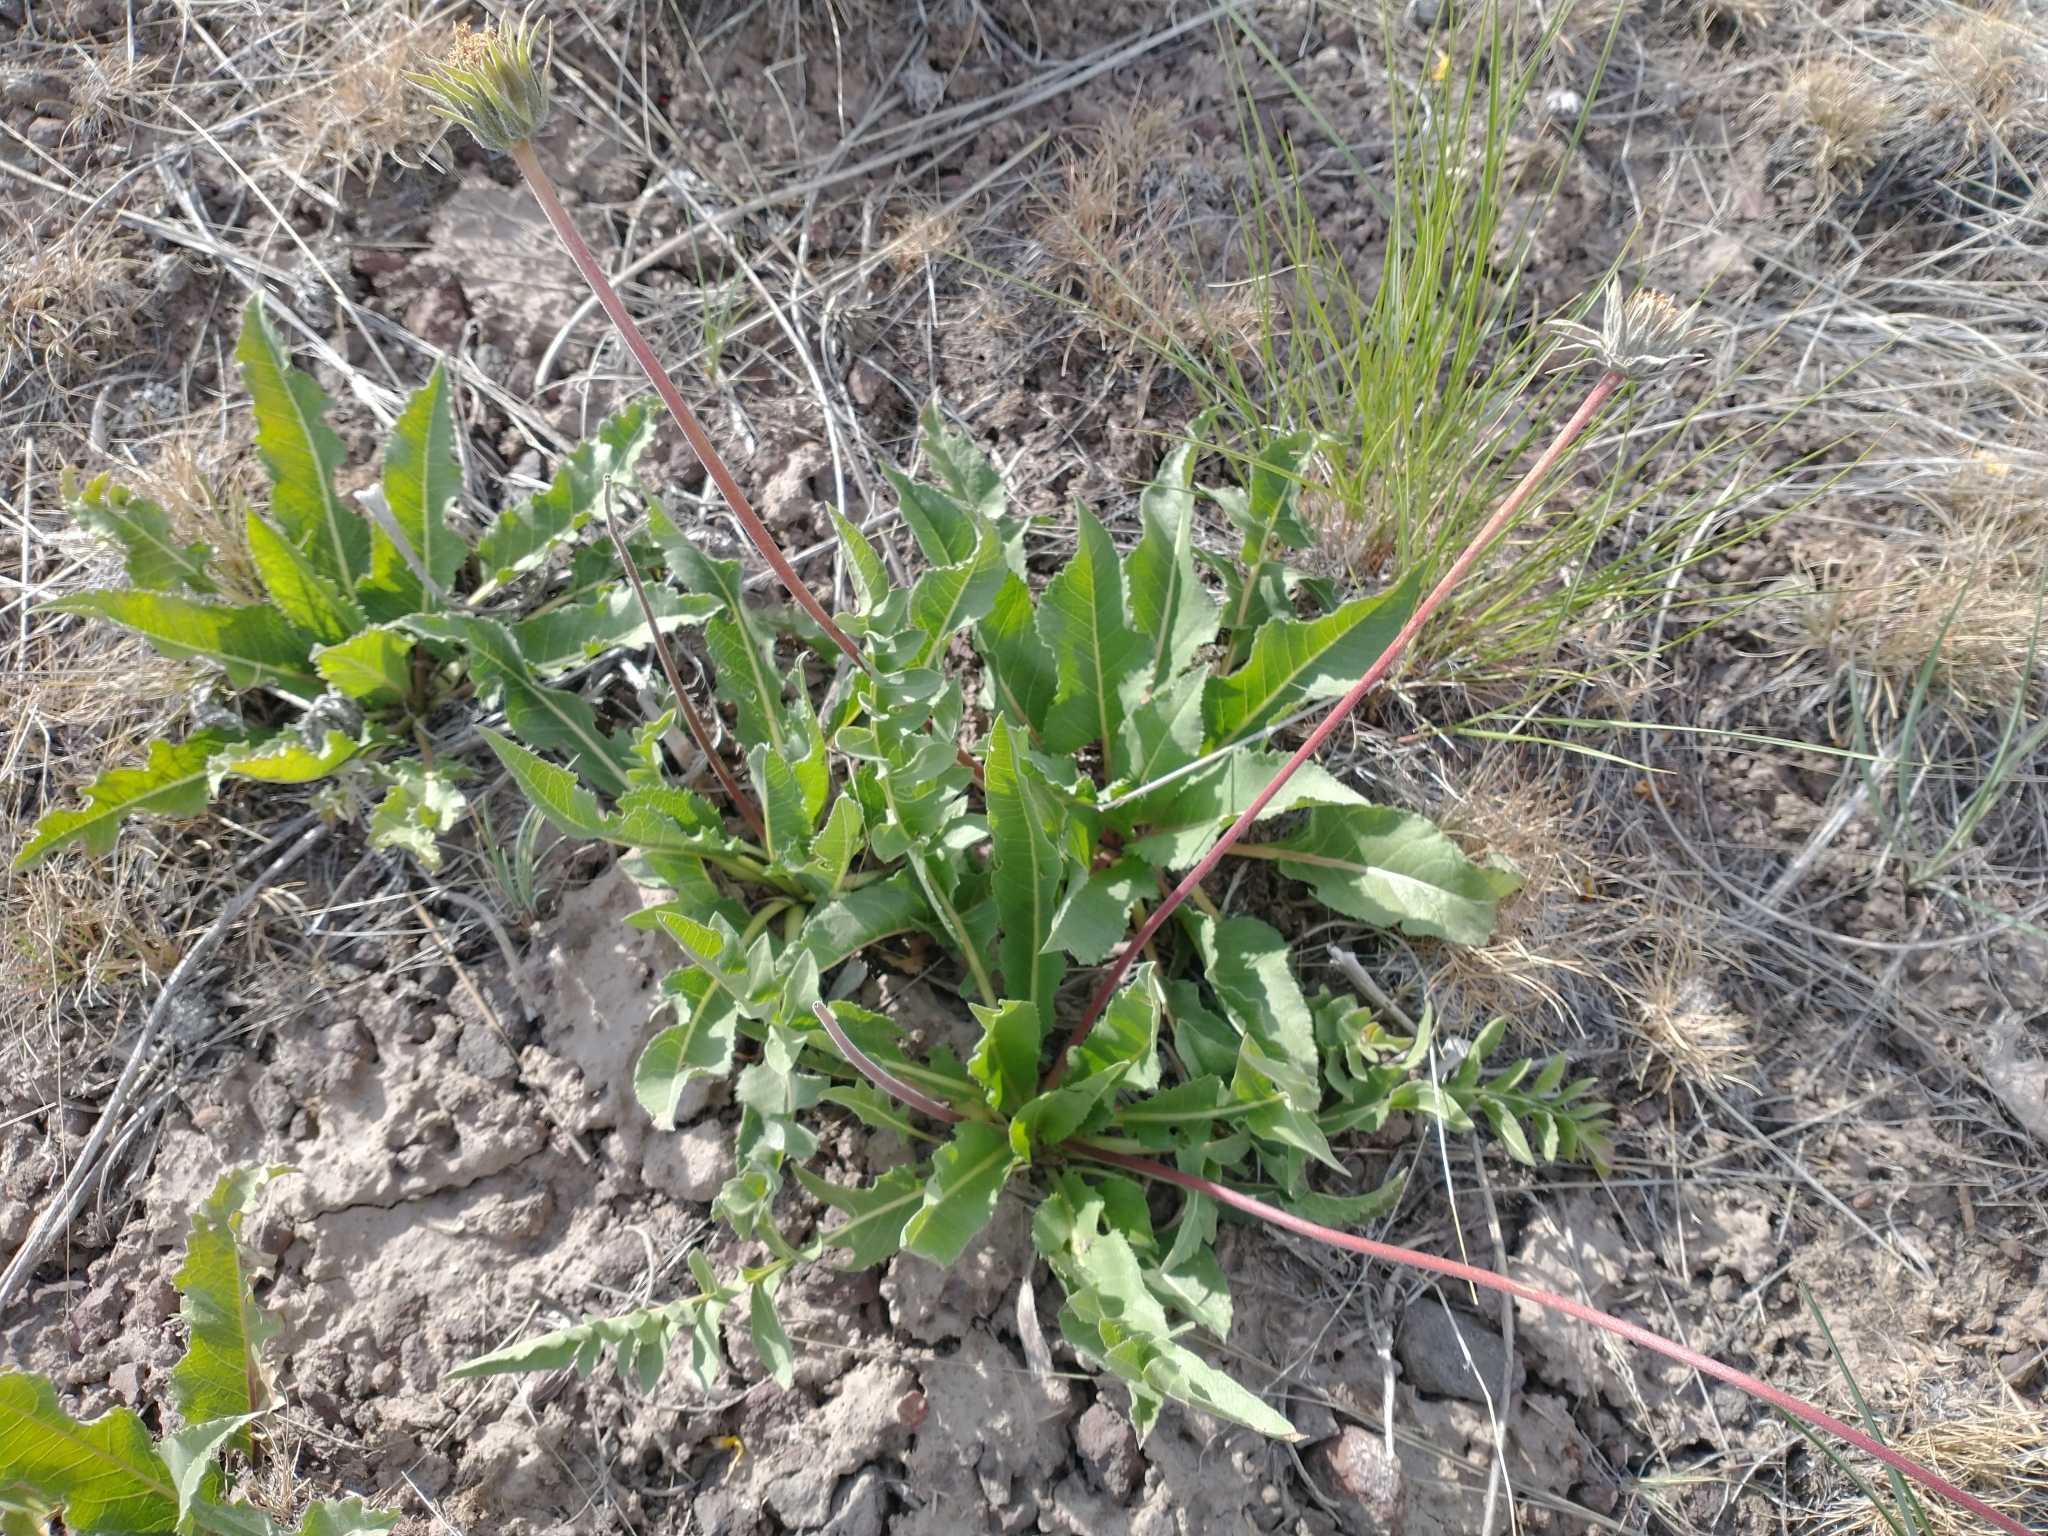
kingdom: Plantae
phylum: Tracheophyta
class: Magnoliopsida
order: Asterales
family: Asteraceae
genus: Balsamorhiza
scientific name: Balsamorhiza serrata
